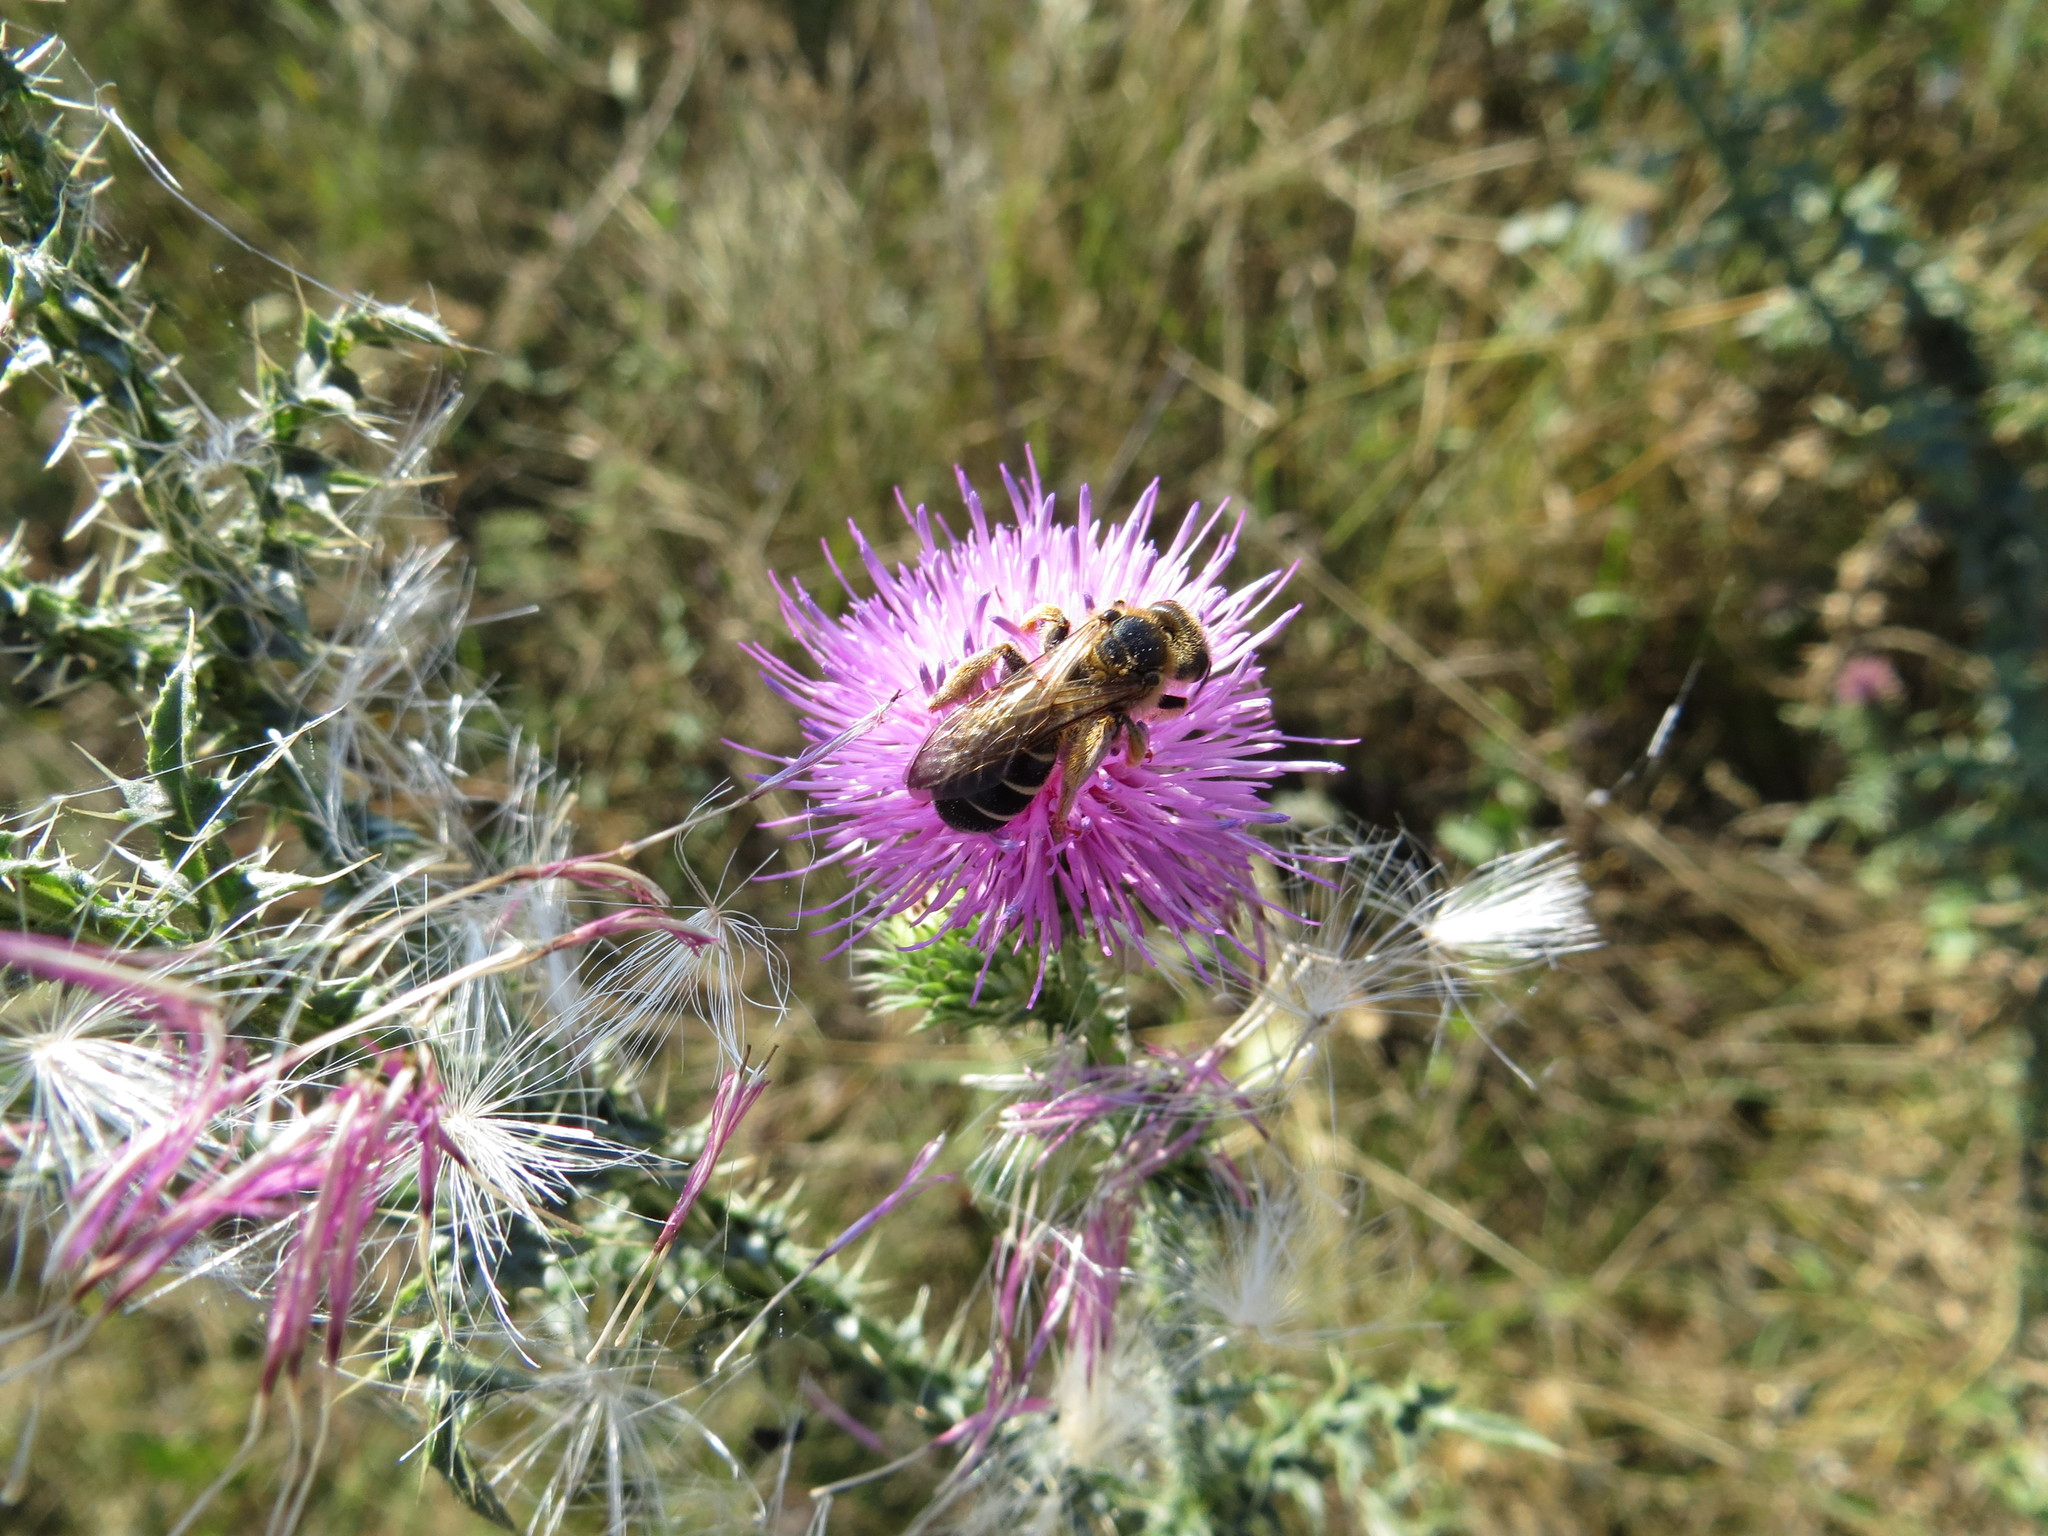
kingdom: Animalia
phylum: Arthropoda
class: Insecta
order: Hymenoptera
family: Halictidae
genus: Halictus
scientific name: Halictus quadricinctus
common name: Giant furrow bee
